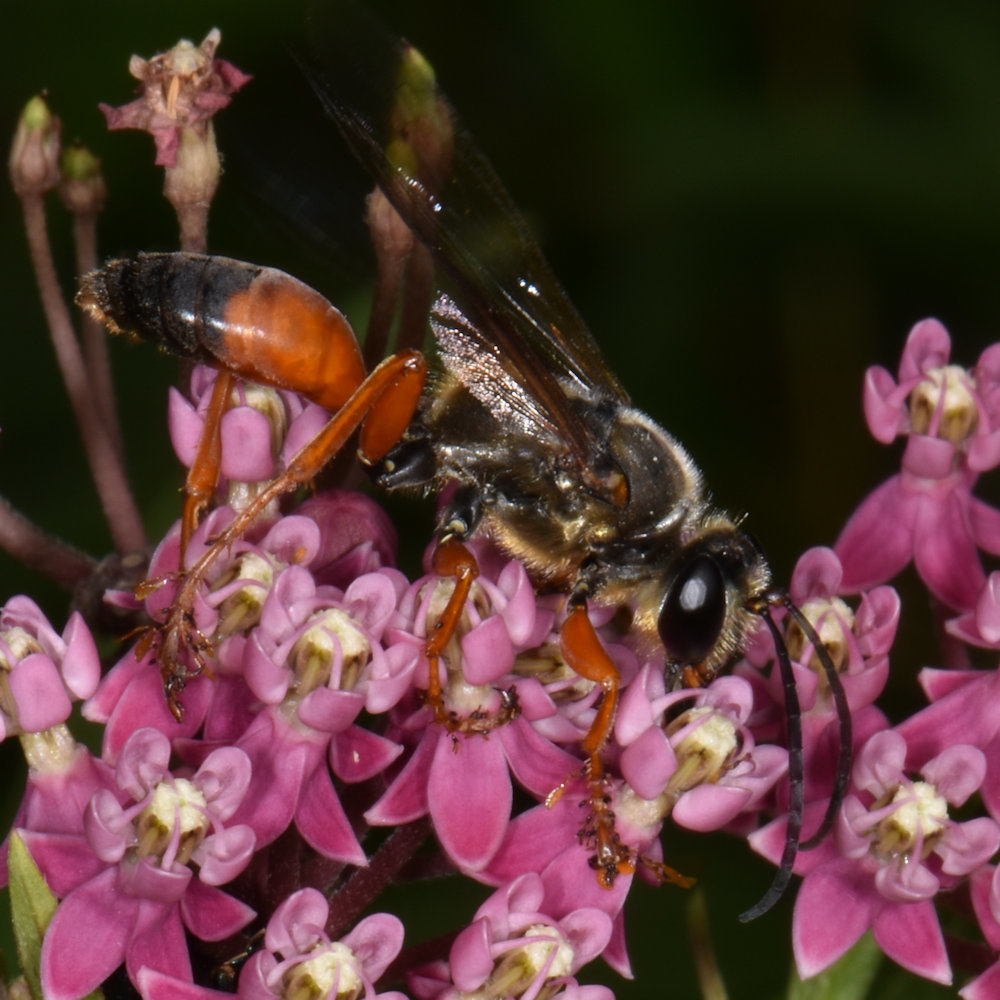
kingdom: Animalia
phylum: Arthropoda
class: Insecta
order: Hymenoptera
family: Sphecidae
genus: Sphex
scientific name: Sphex ichneumoneus
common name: Great golden digger wasp
